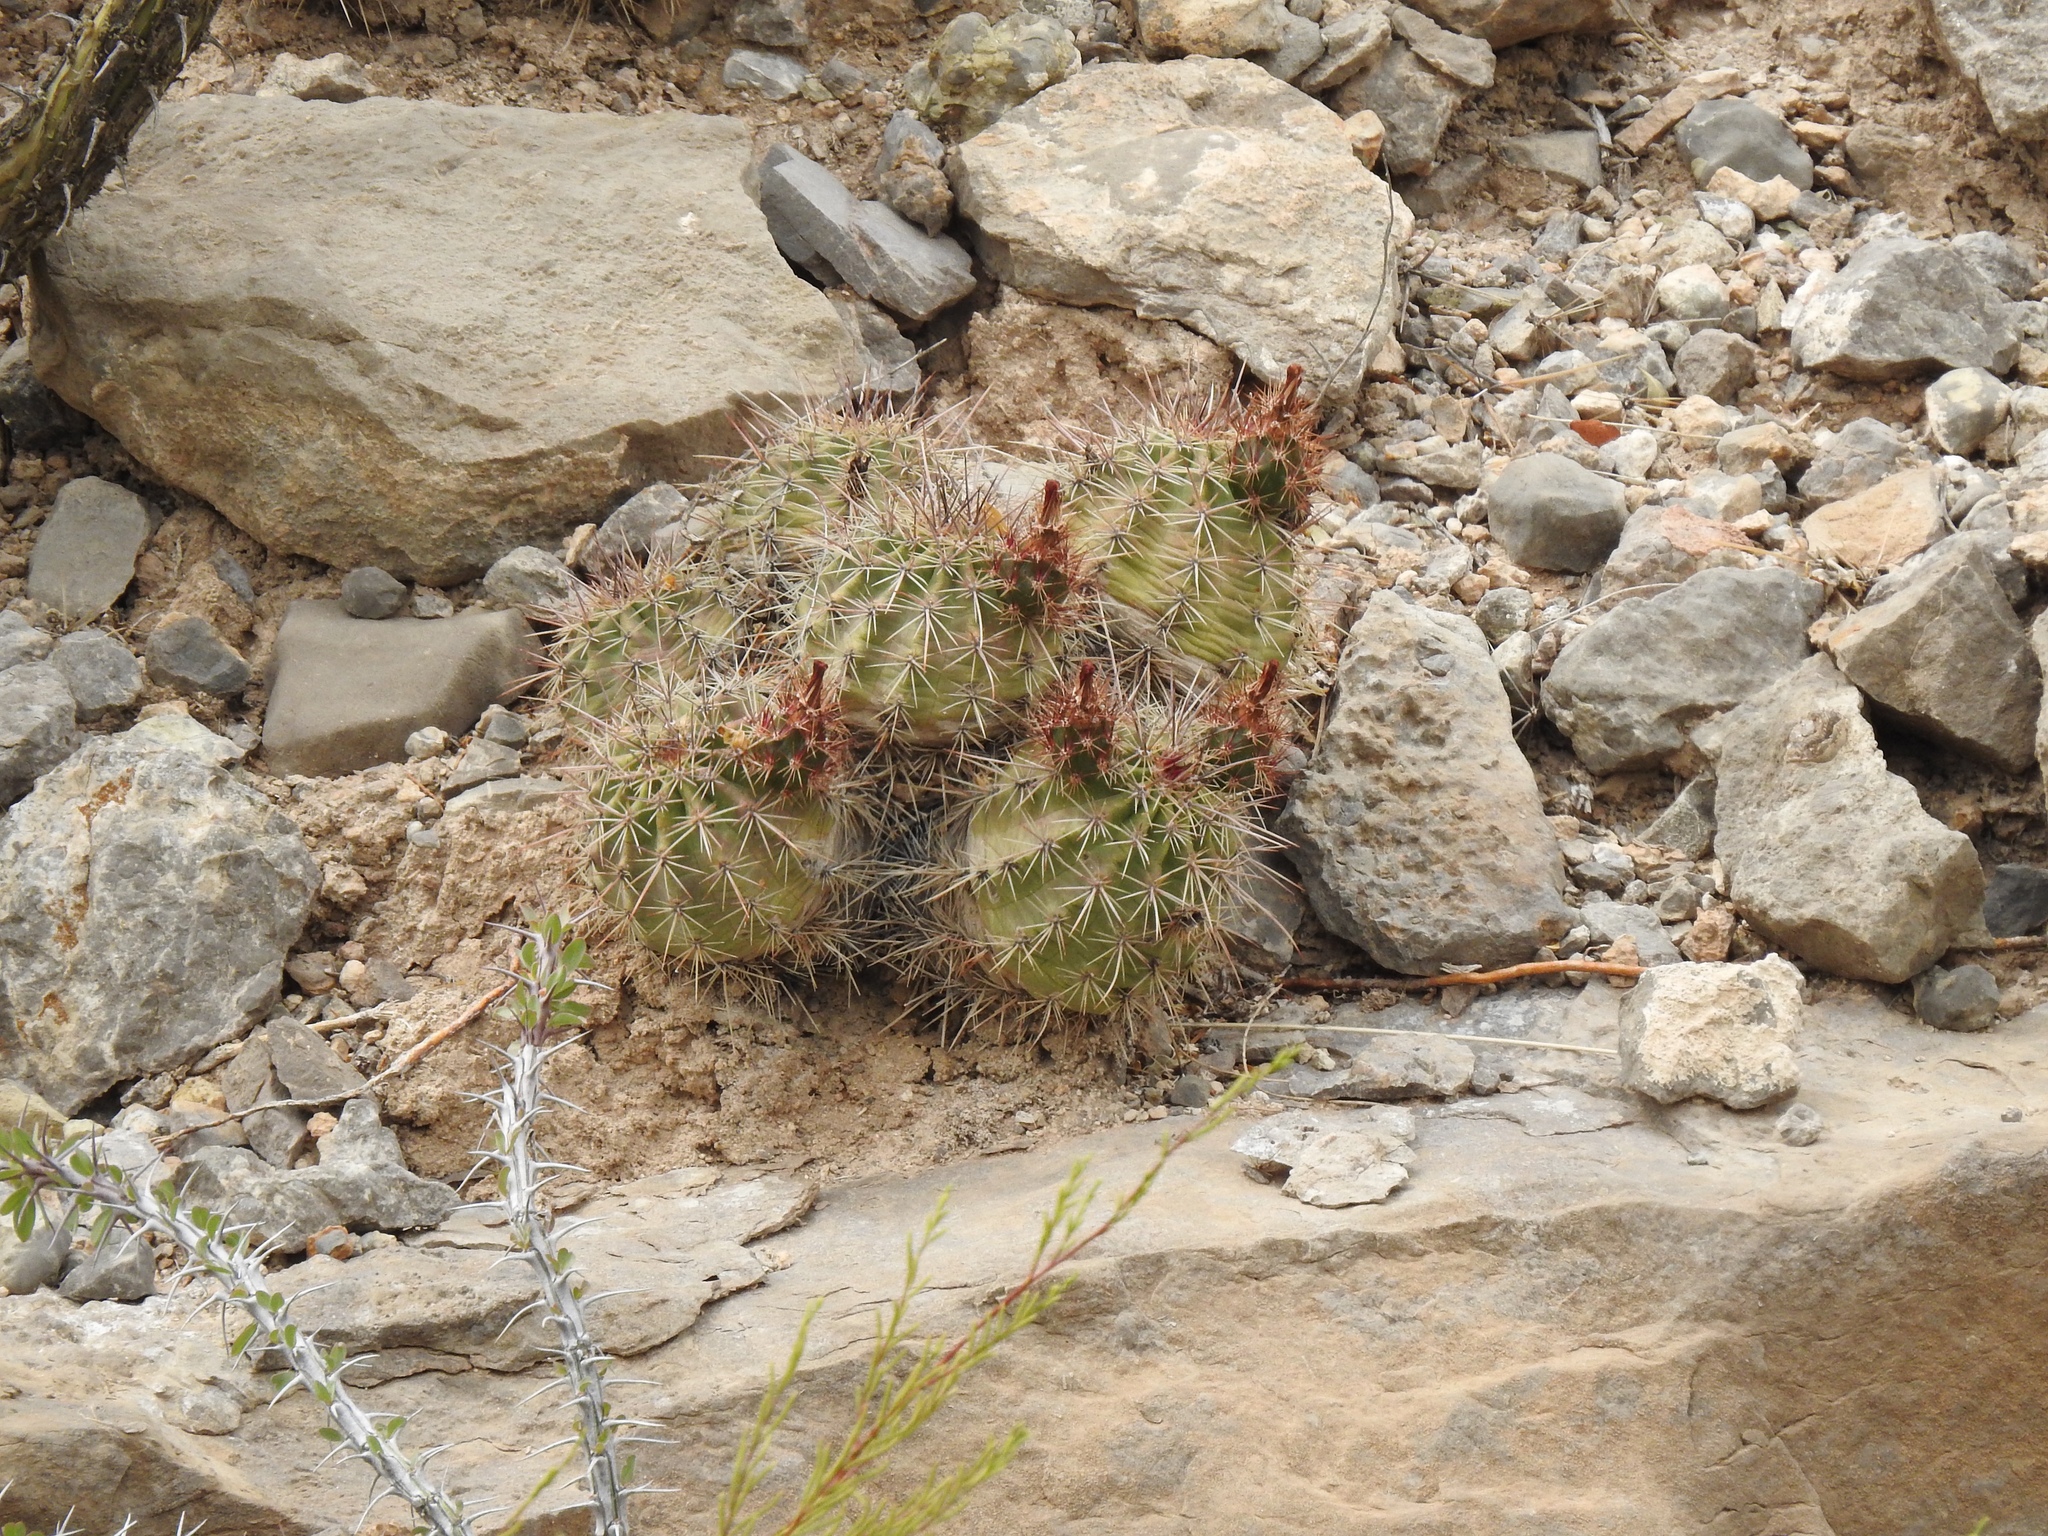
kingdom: Plantae
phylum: Tracheophyta
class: Magnoliopsida
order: Caryophyllales
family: Cactaceae
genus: Echinocereus
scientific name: Echinocereus coccineus
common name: Scarlet hedgehog cactus
